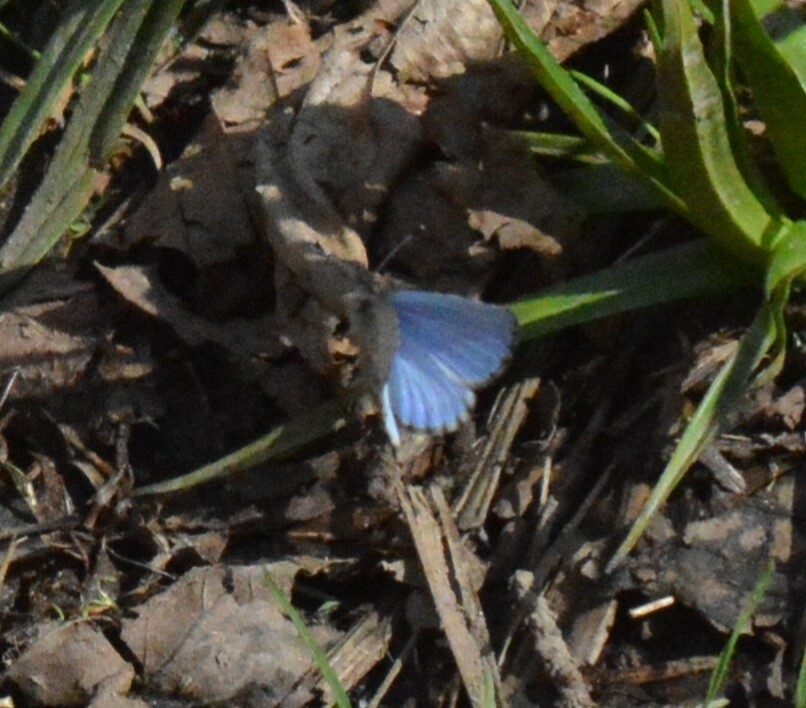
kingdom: Animalia
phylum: Arthropoda
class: Insecta
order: Lepidoptera
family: Lycaenidae
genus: Celastrina
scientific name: Celastrina lucia
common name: Lucia azure
